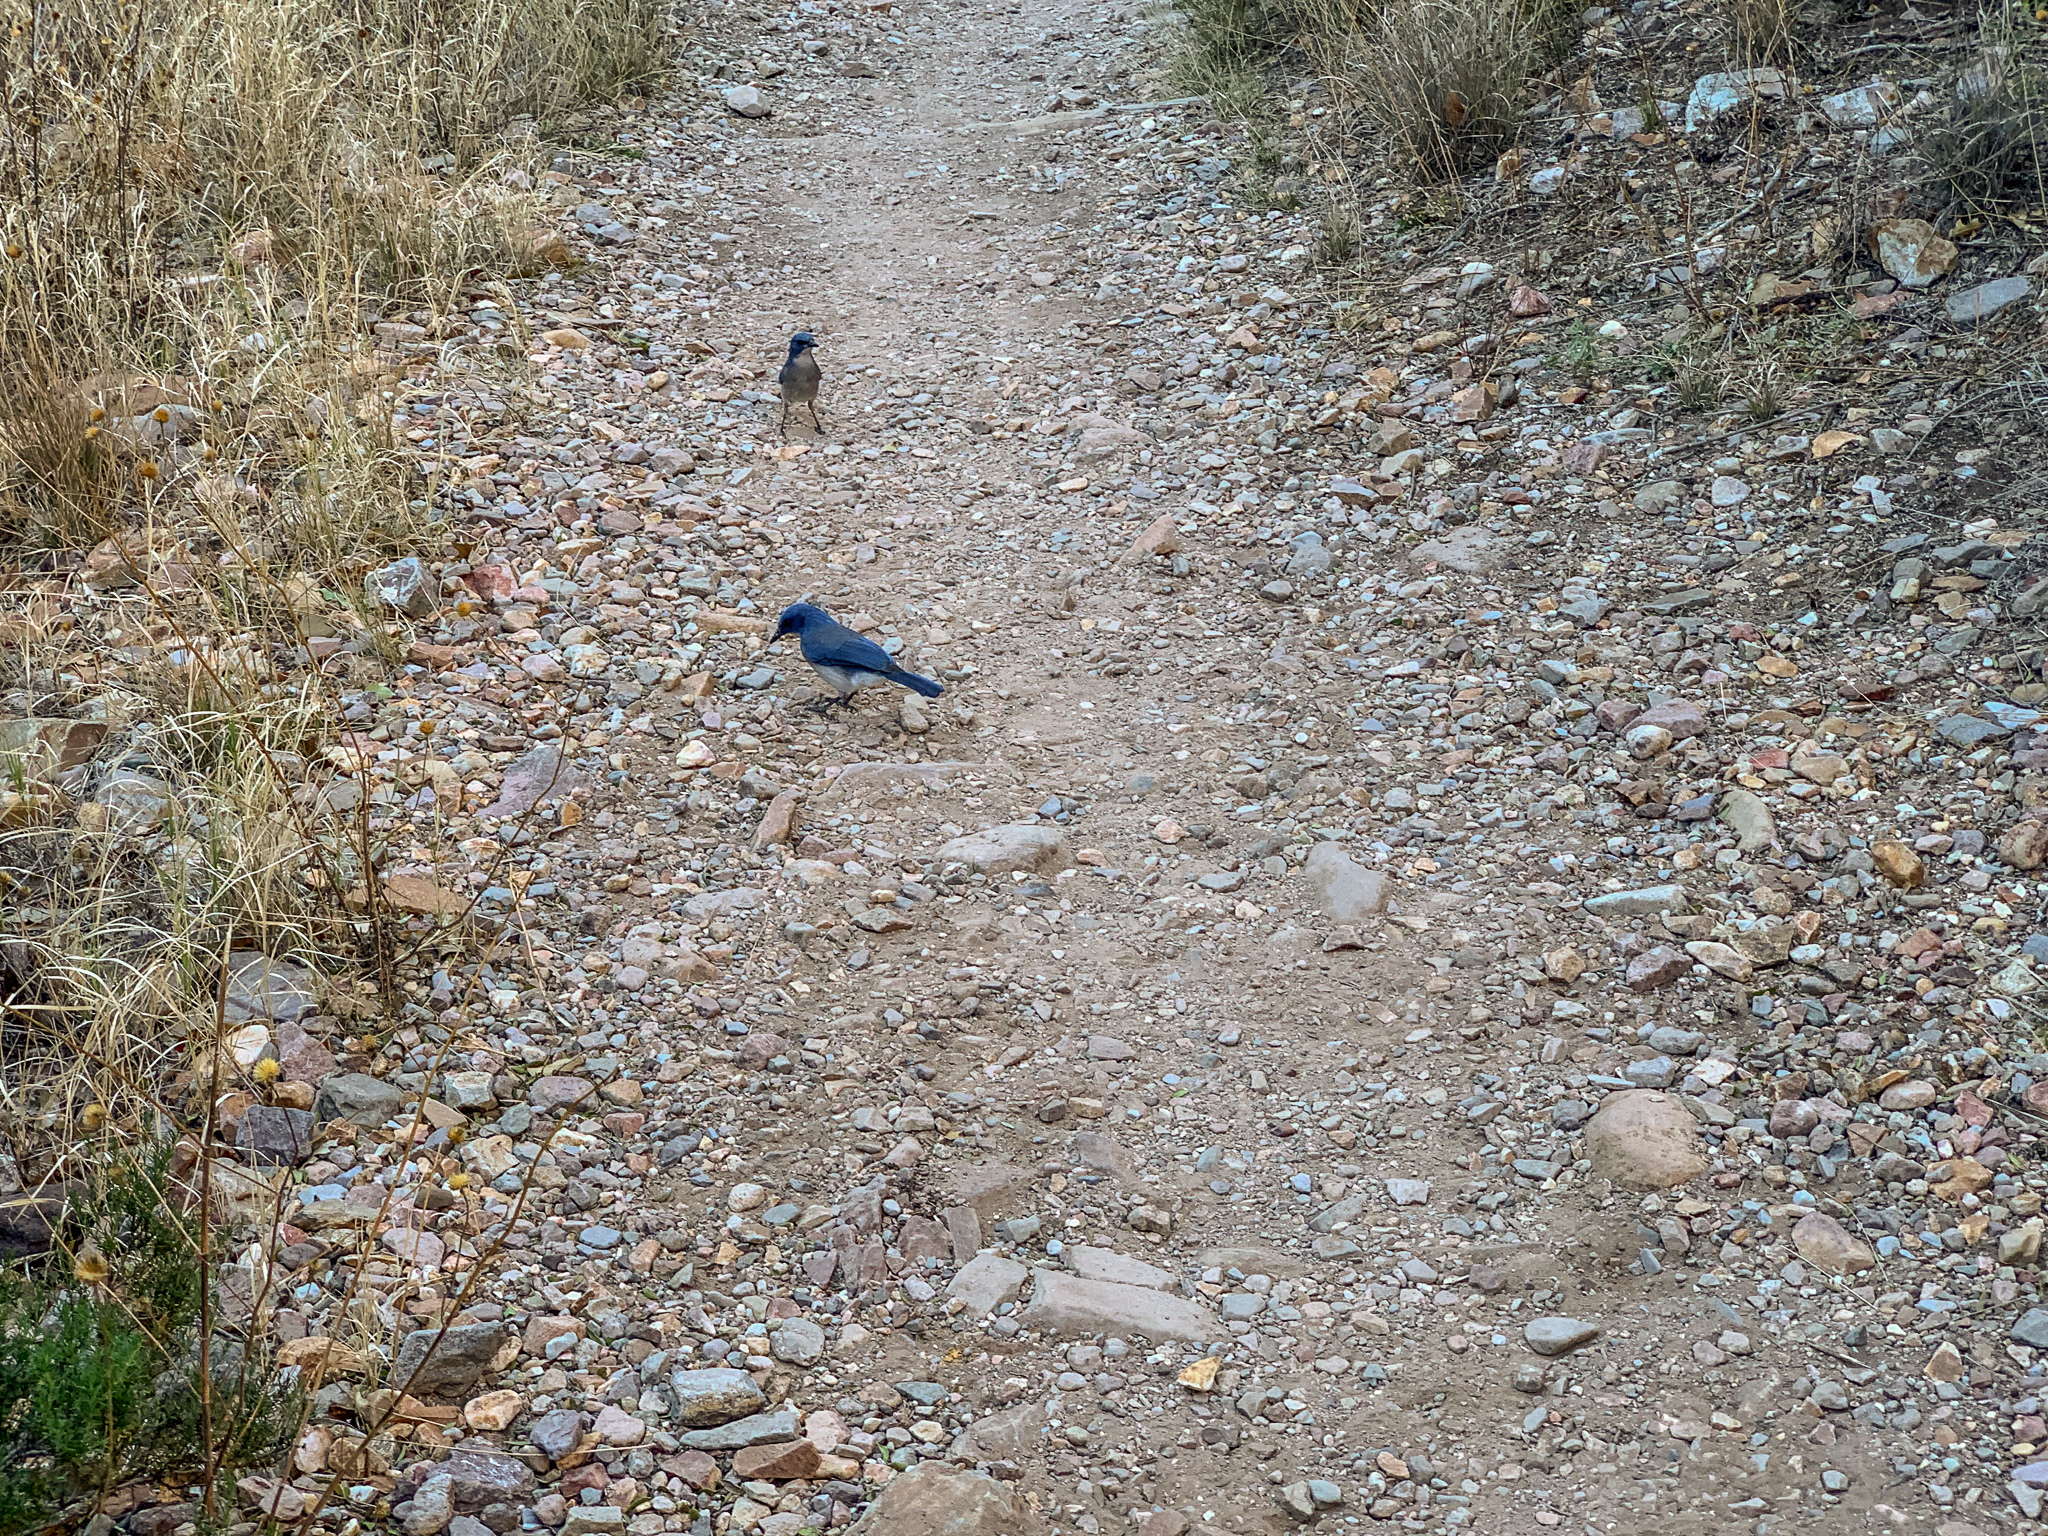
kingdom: Animalia
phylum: Chordata
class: Aves
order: Passeriformes
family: Corvidae
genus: Aphelocoma
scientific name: Aphelocoma wollweberi
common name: Mexican jay
